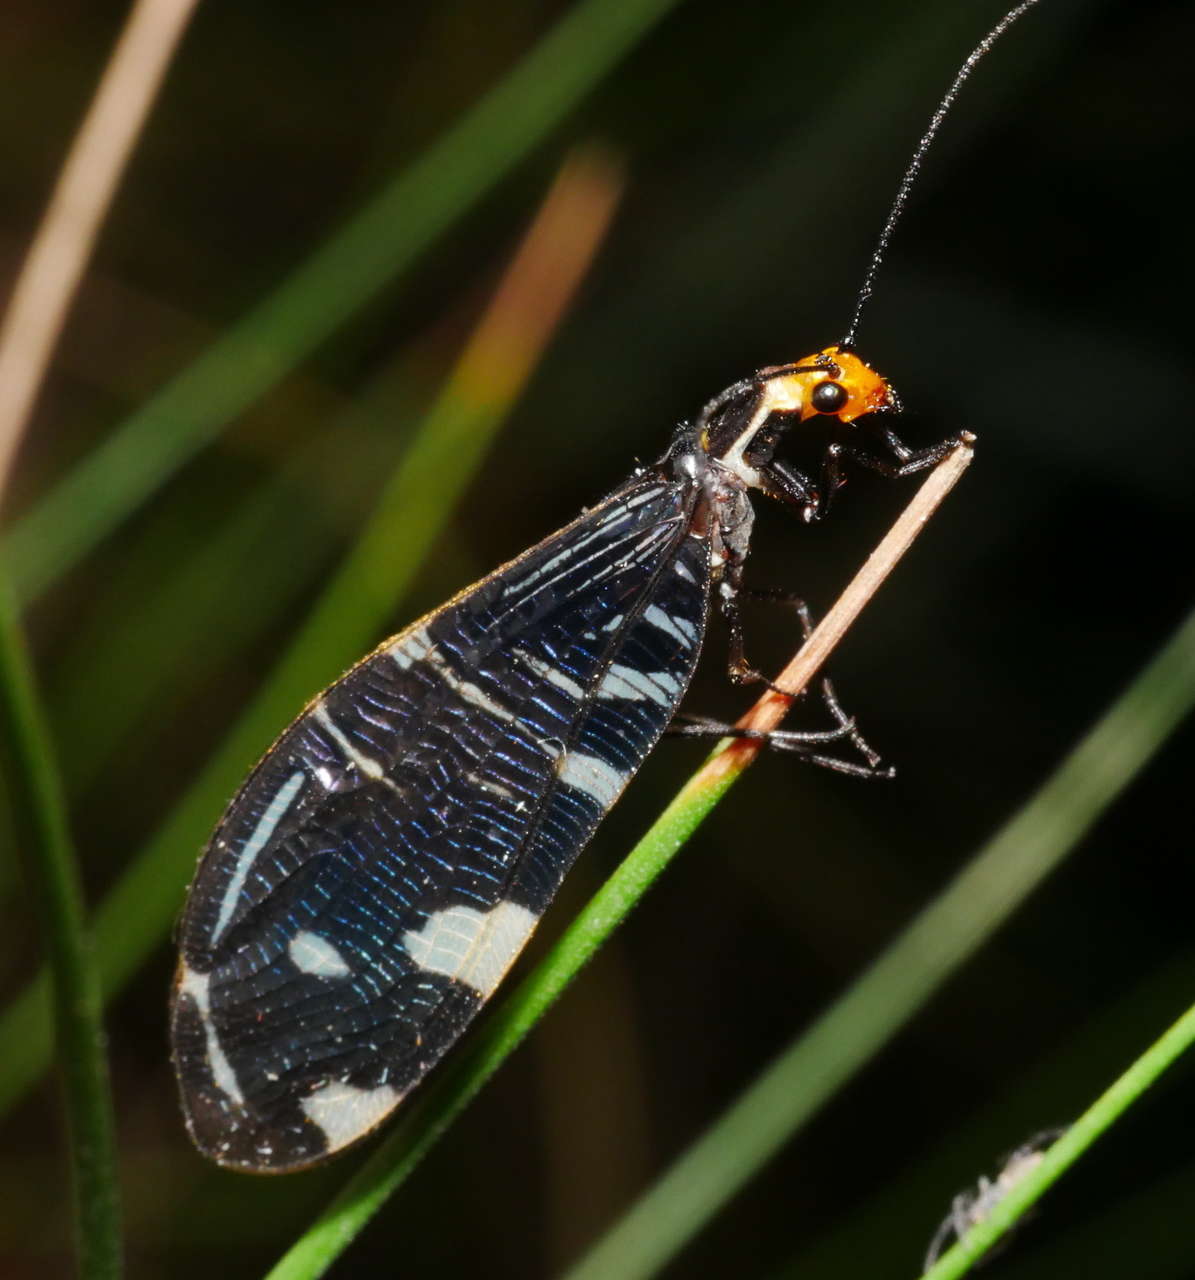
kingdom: Animalia
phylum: Arthropoda
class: Insecta
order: Neuroptera
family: Osmylidae
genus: Porismus
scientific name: Porismus strigatus
